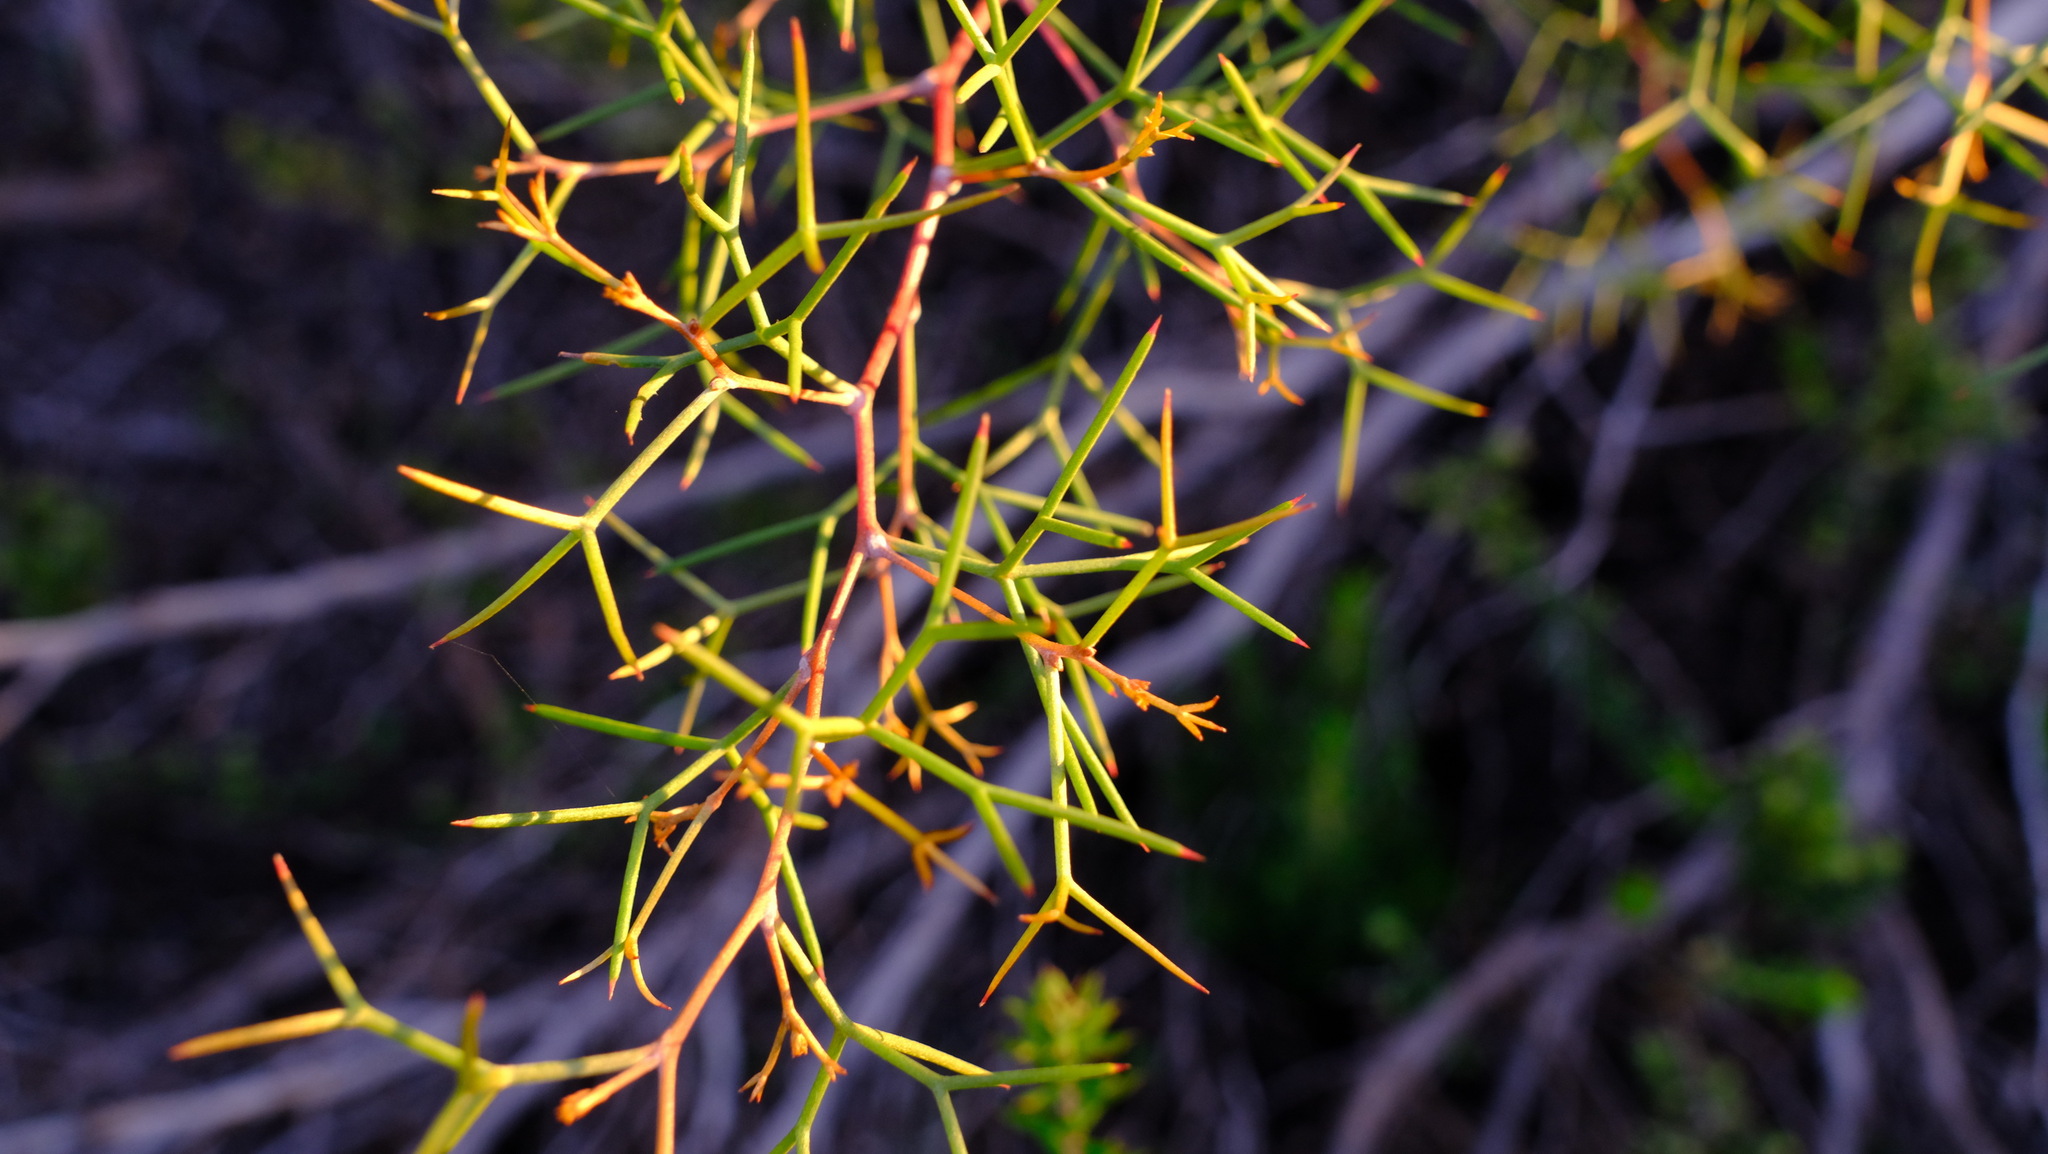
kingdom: Plantae
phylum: Tracheophyta
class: Magnoliopsida
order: Proteales
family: Proteaceae
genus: Hakea
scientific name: Hakea trifurcata
